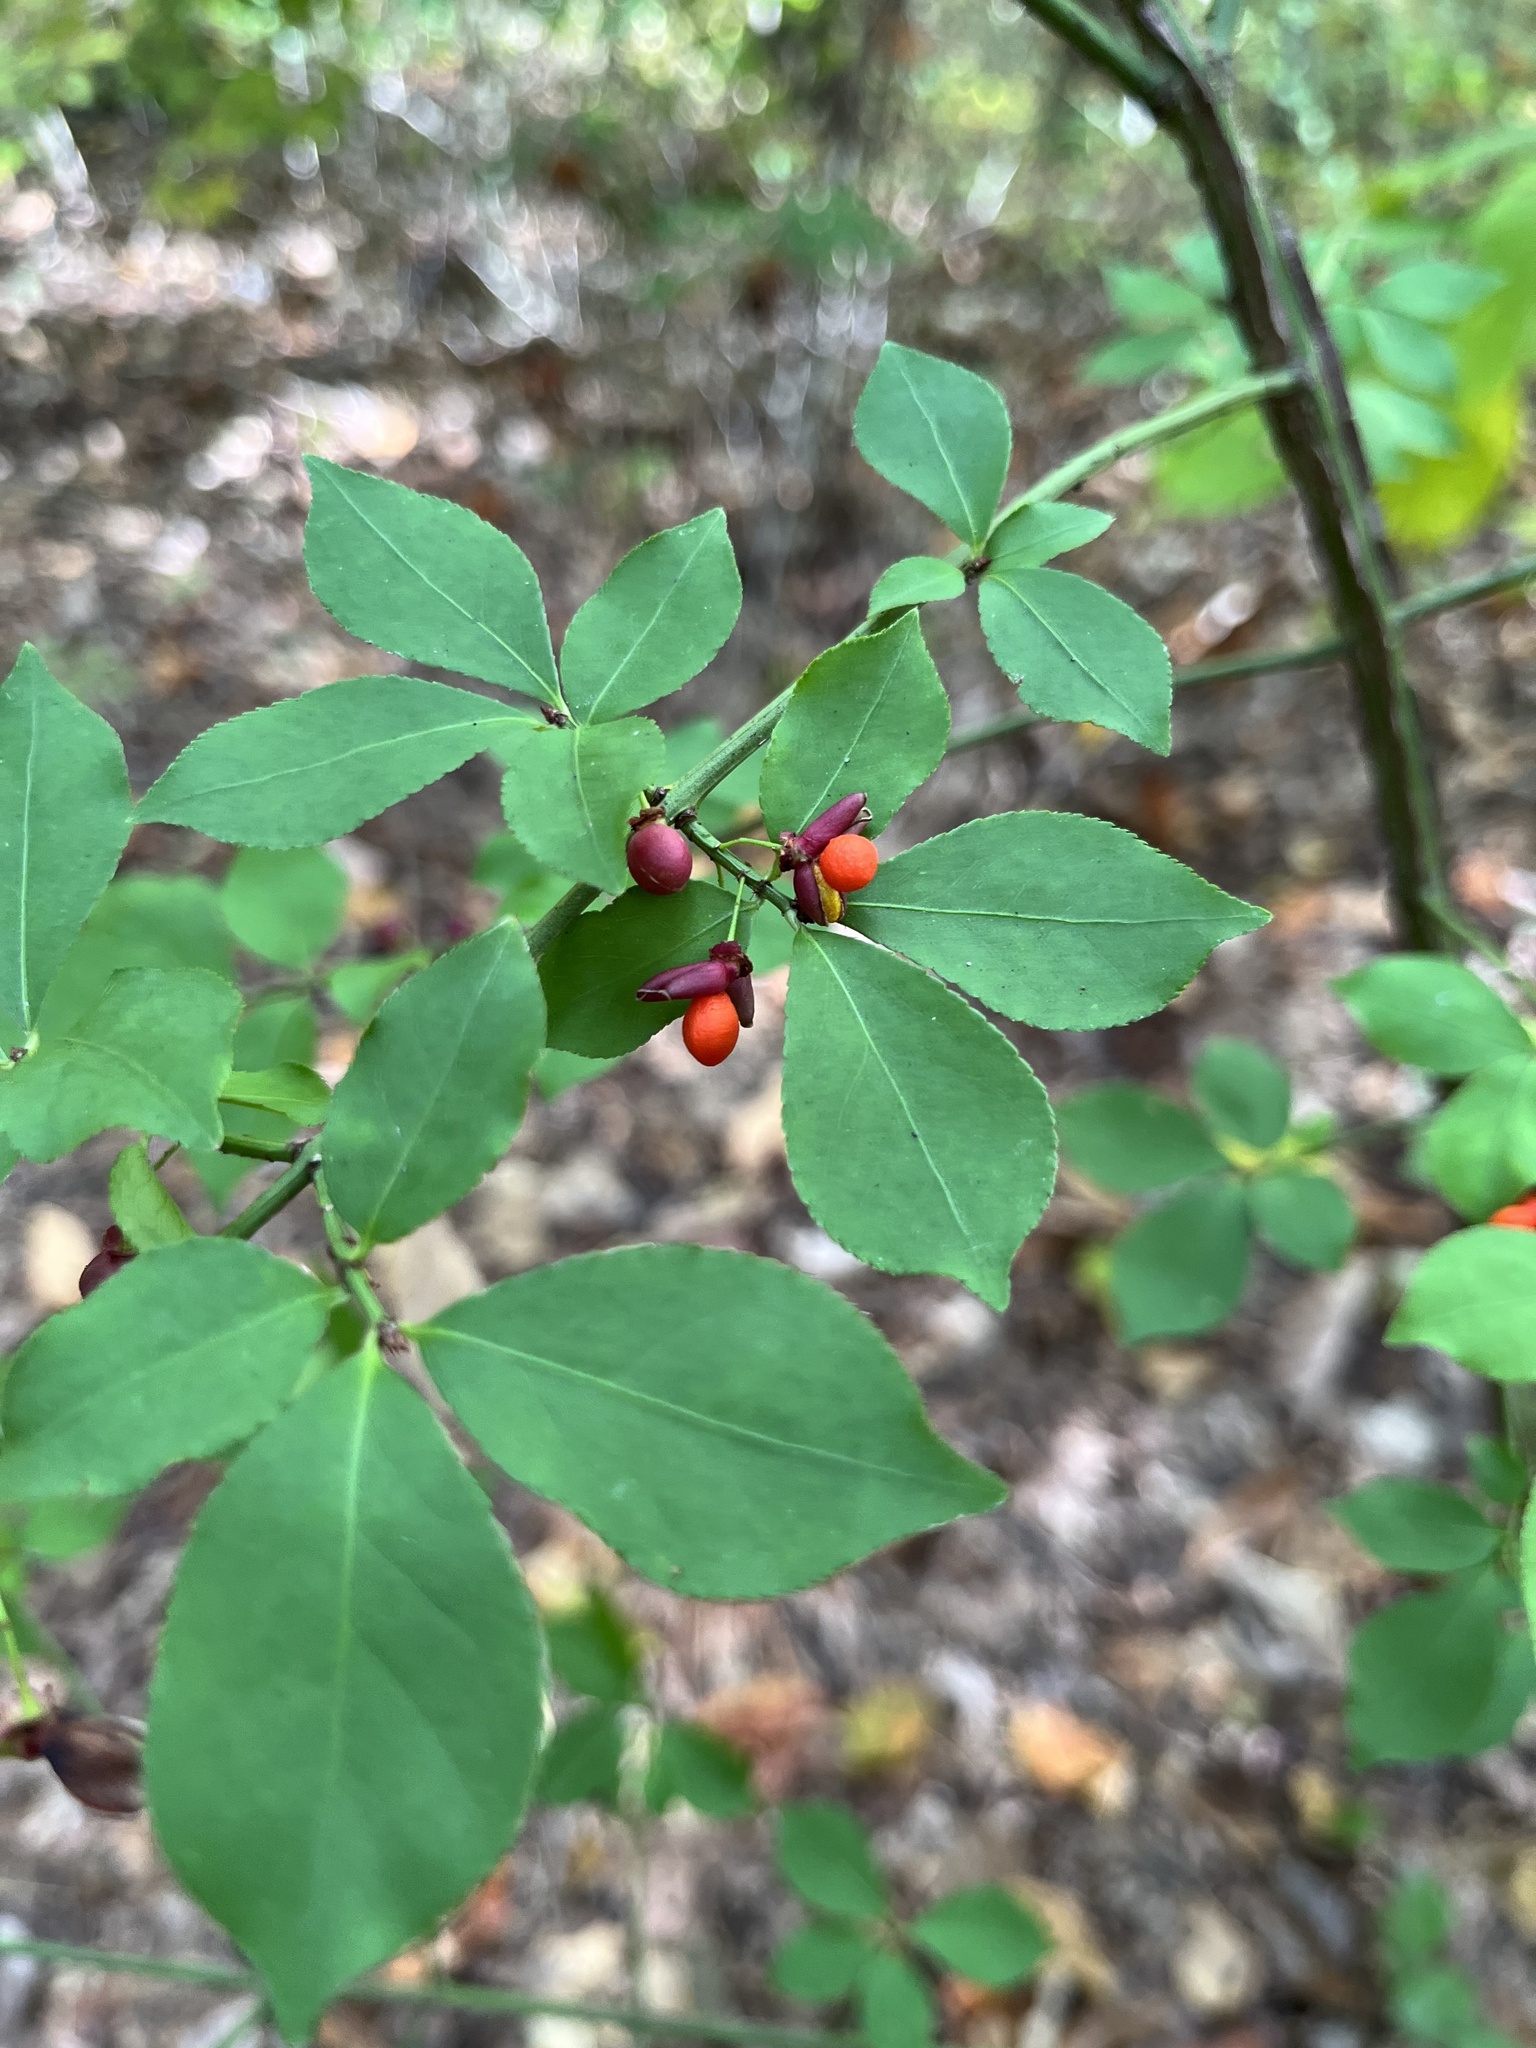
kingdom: Plantae
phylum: Tracheophyta
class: Magnoliopsida
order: Celastrales
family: Celastraceae
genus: Euonymus
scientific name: Euonymus alatus
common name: Winged euonymus
